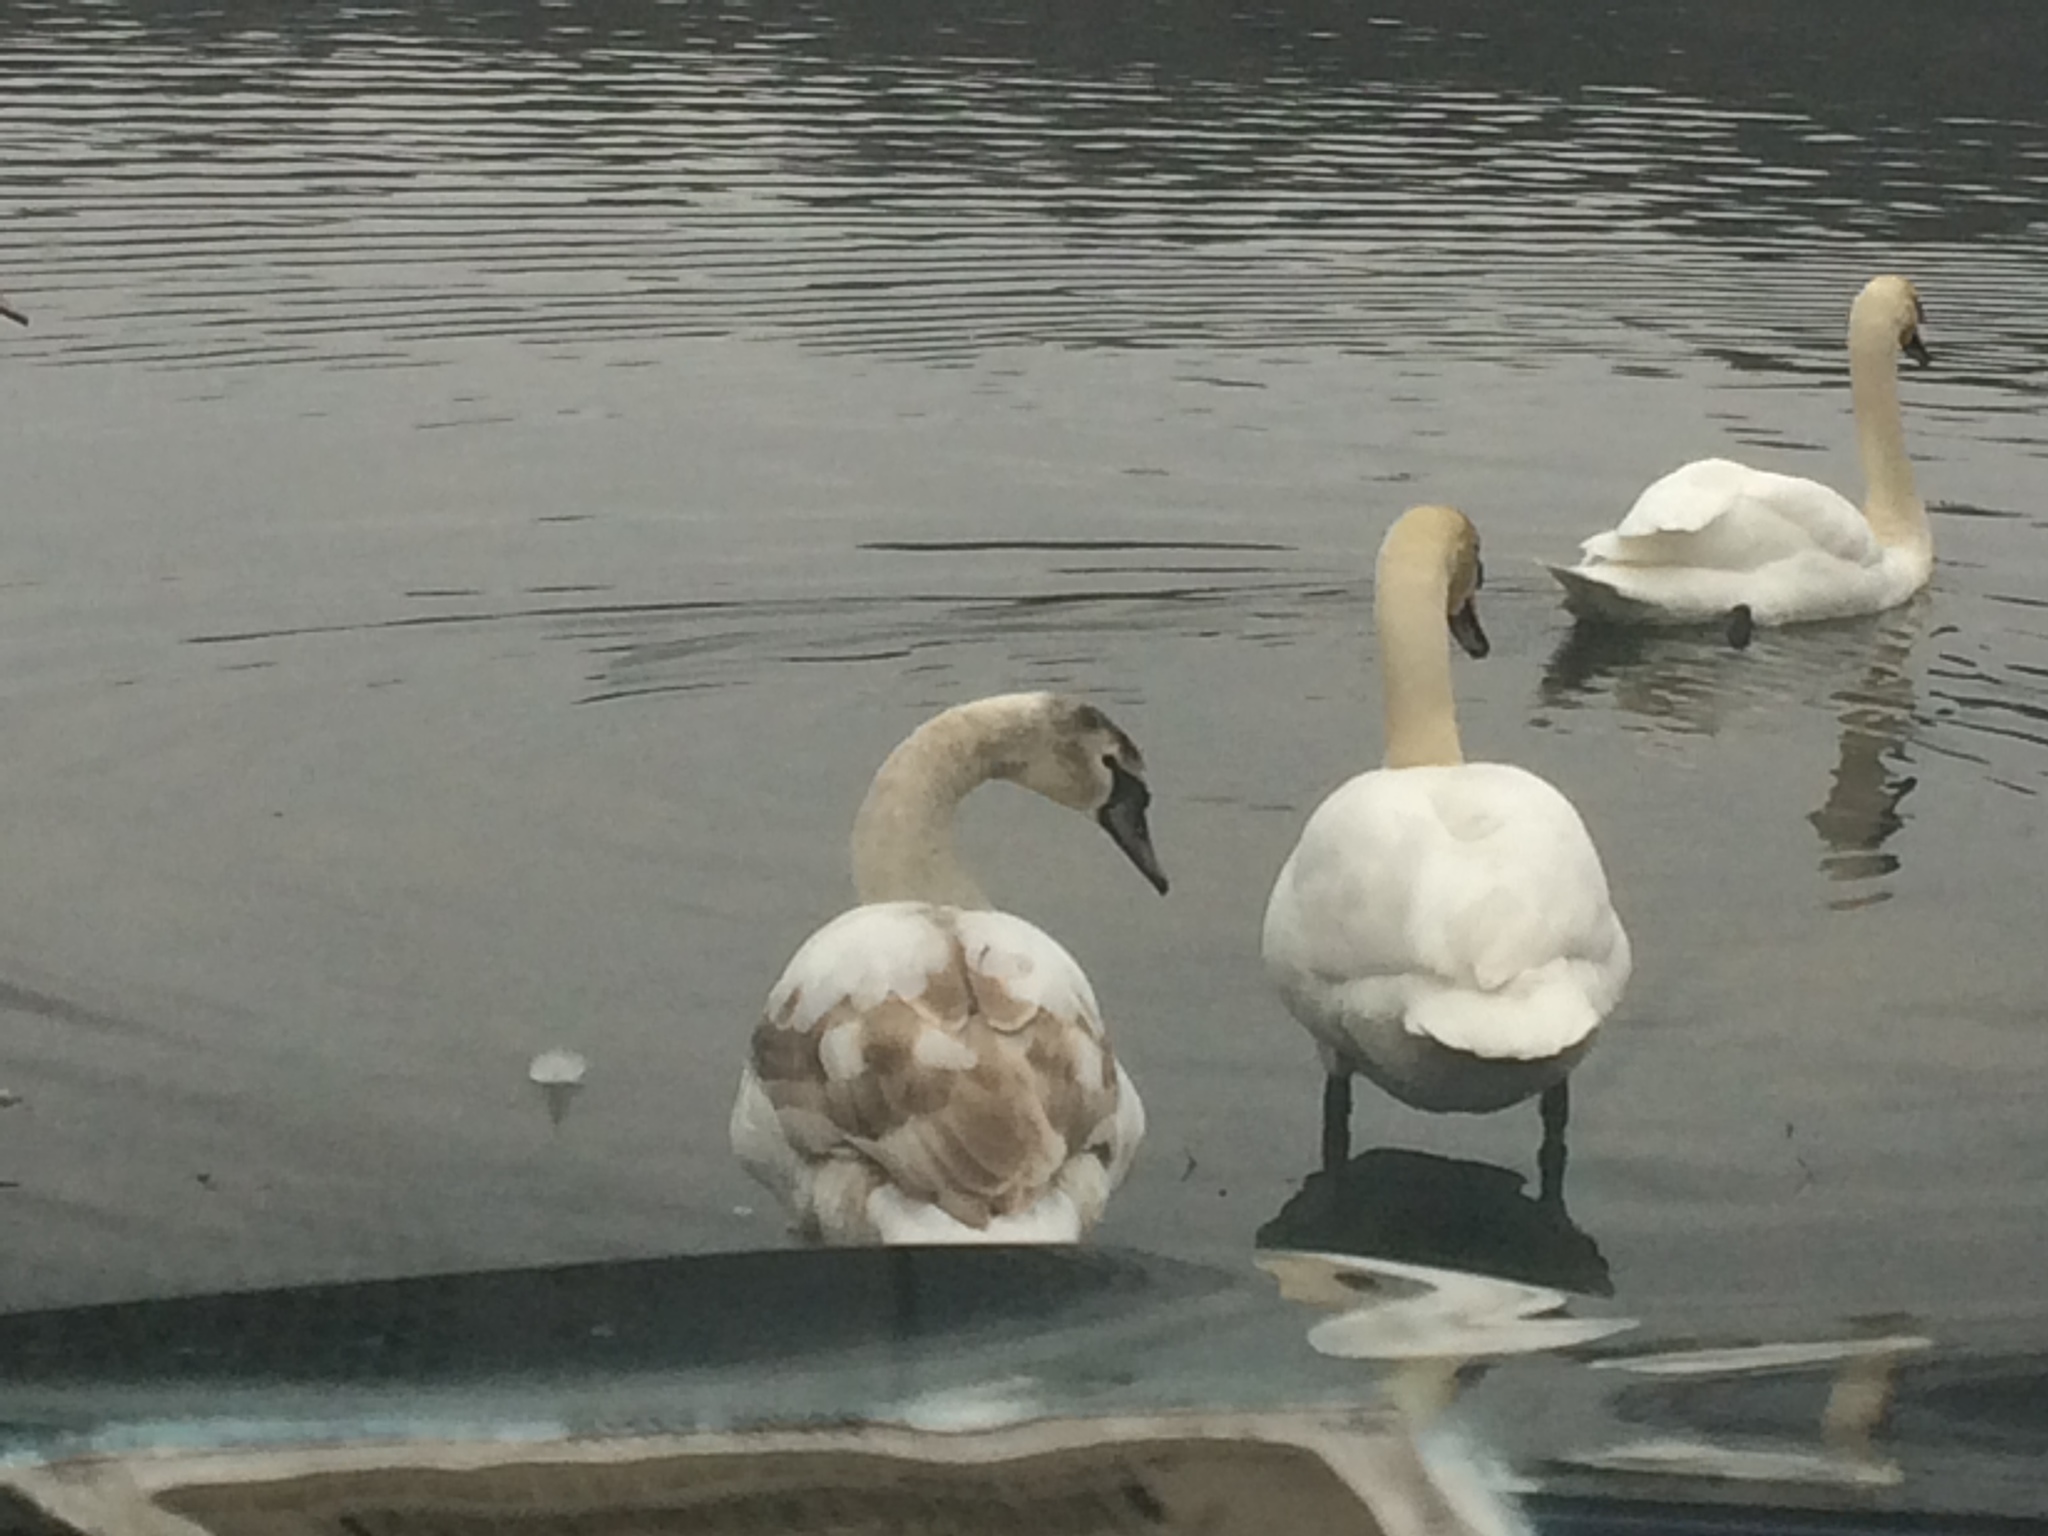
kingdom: Animalia
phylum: Chordata
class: Aves
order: Anseriformes
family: Anatidae
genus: Cygnus
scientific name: Cygnus olor
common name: Mute swan
